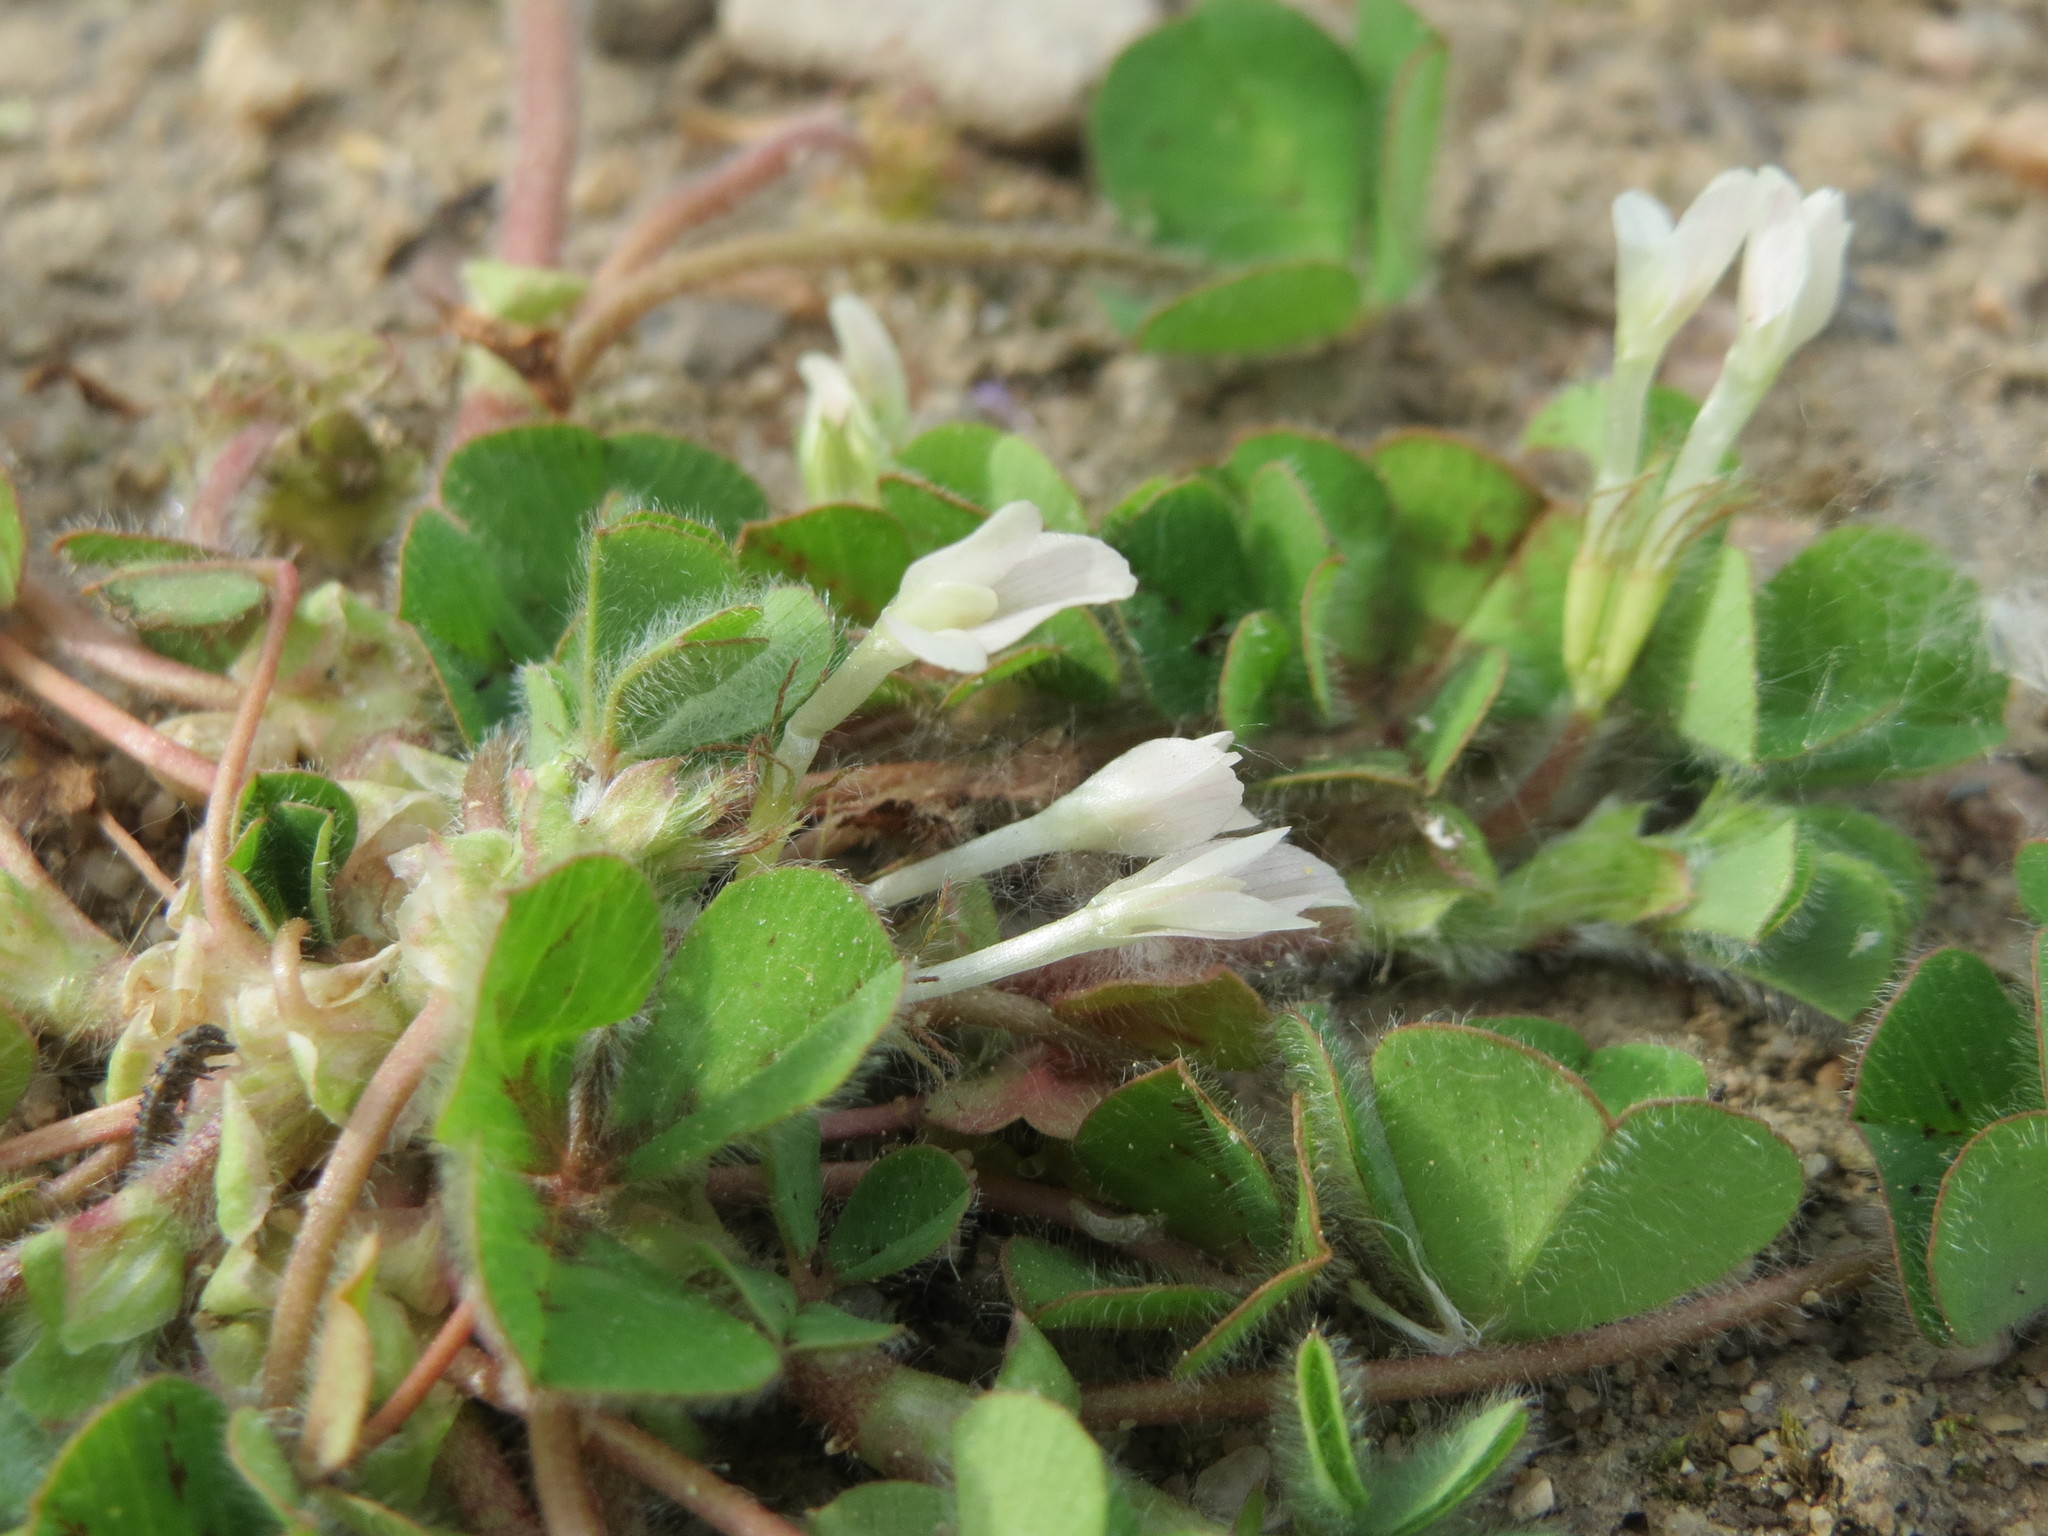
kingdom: Plantae
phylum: Tracheophyta
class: Magnoliopsida
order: Fabales
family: Fabaceae
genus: Trifolium
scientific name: Trifolium subterraneum
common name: Subterranean clover
